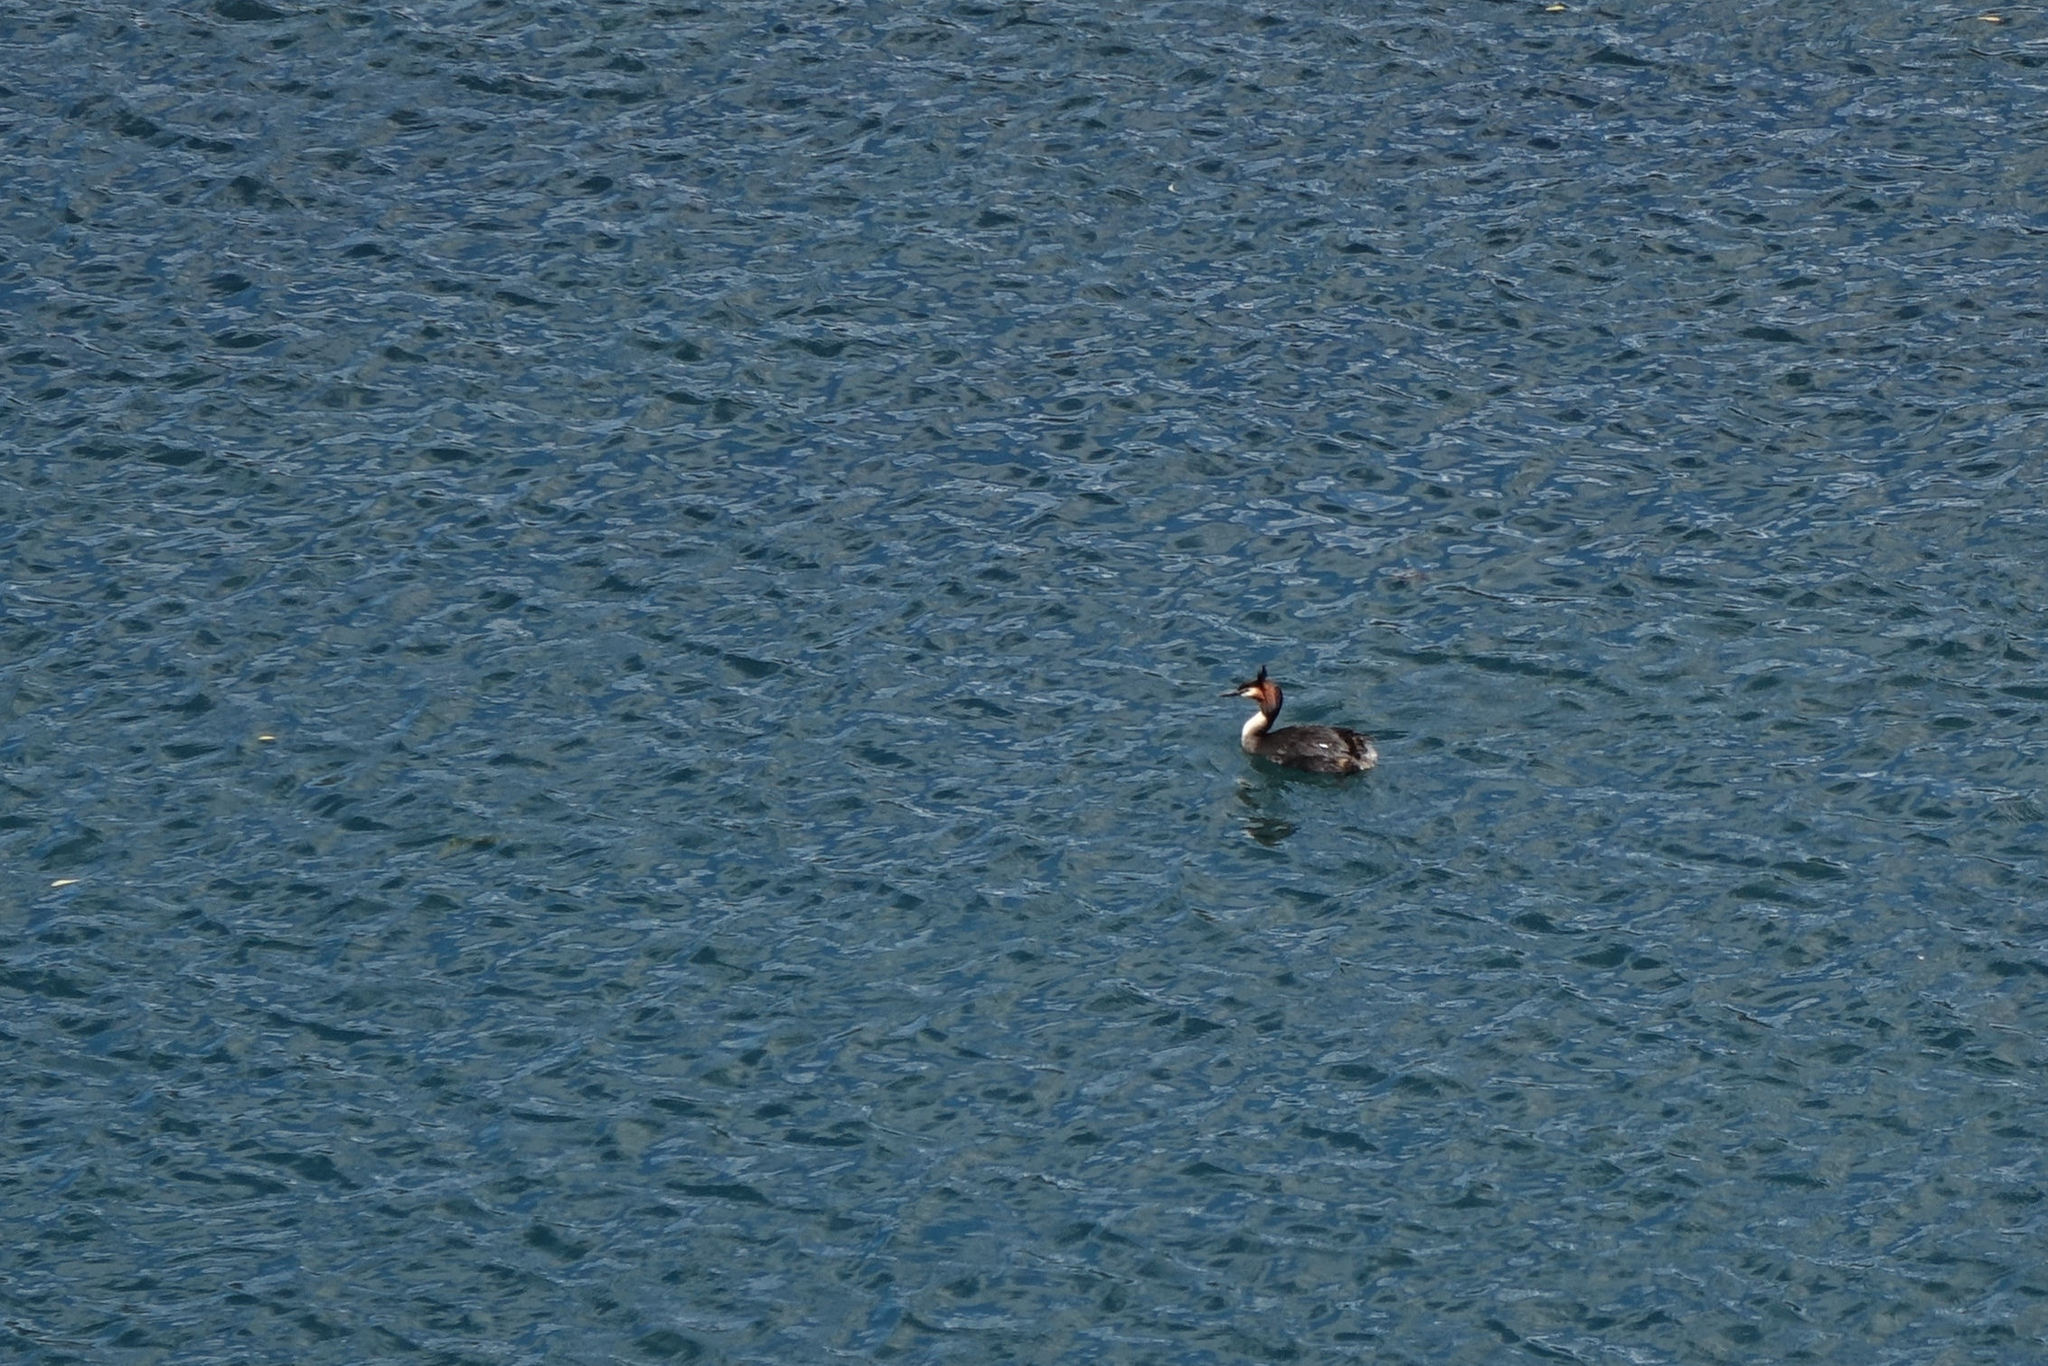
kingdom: Animalia
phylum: Chordata
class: Aves
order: Podicipediformes
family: Podicipedidae
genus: Podiceps
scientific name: Podiceps cristatus
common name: Great crested grebe
